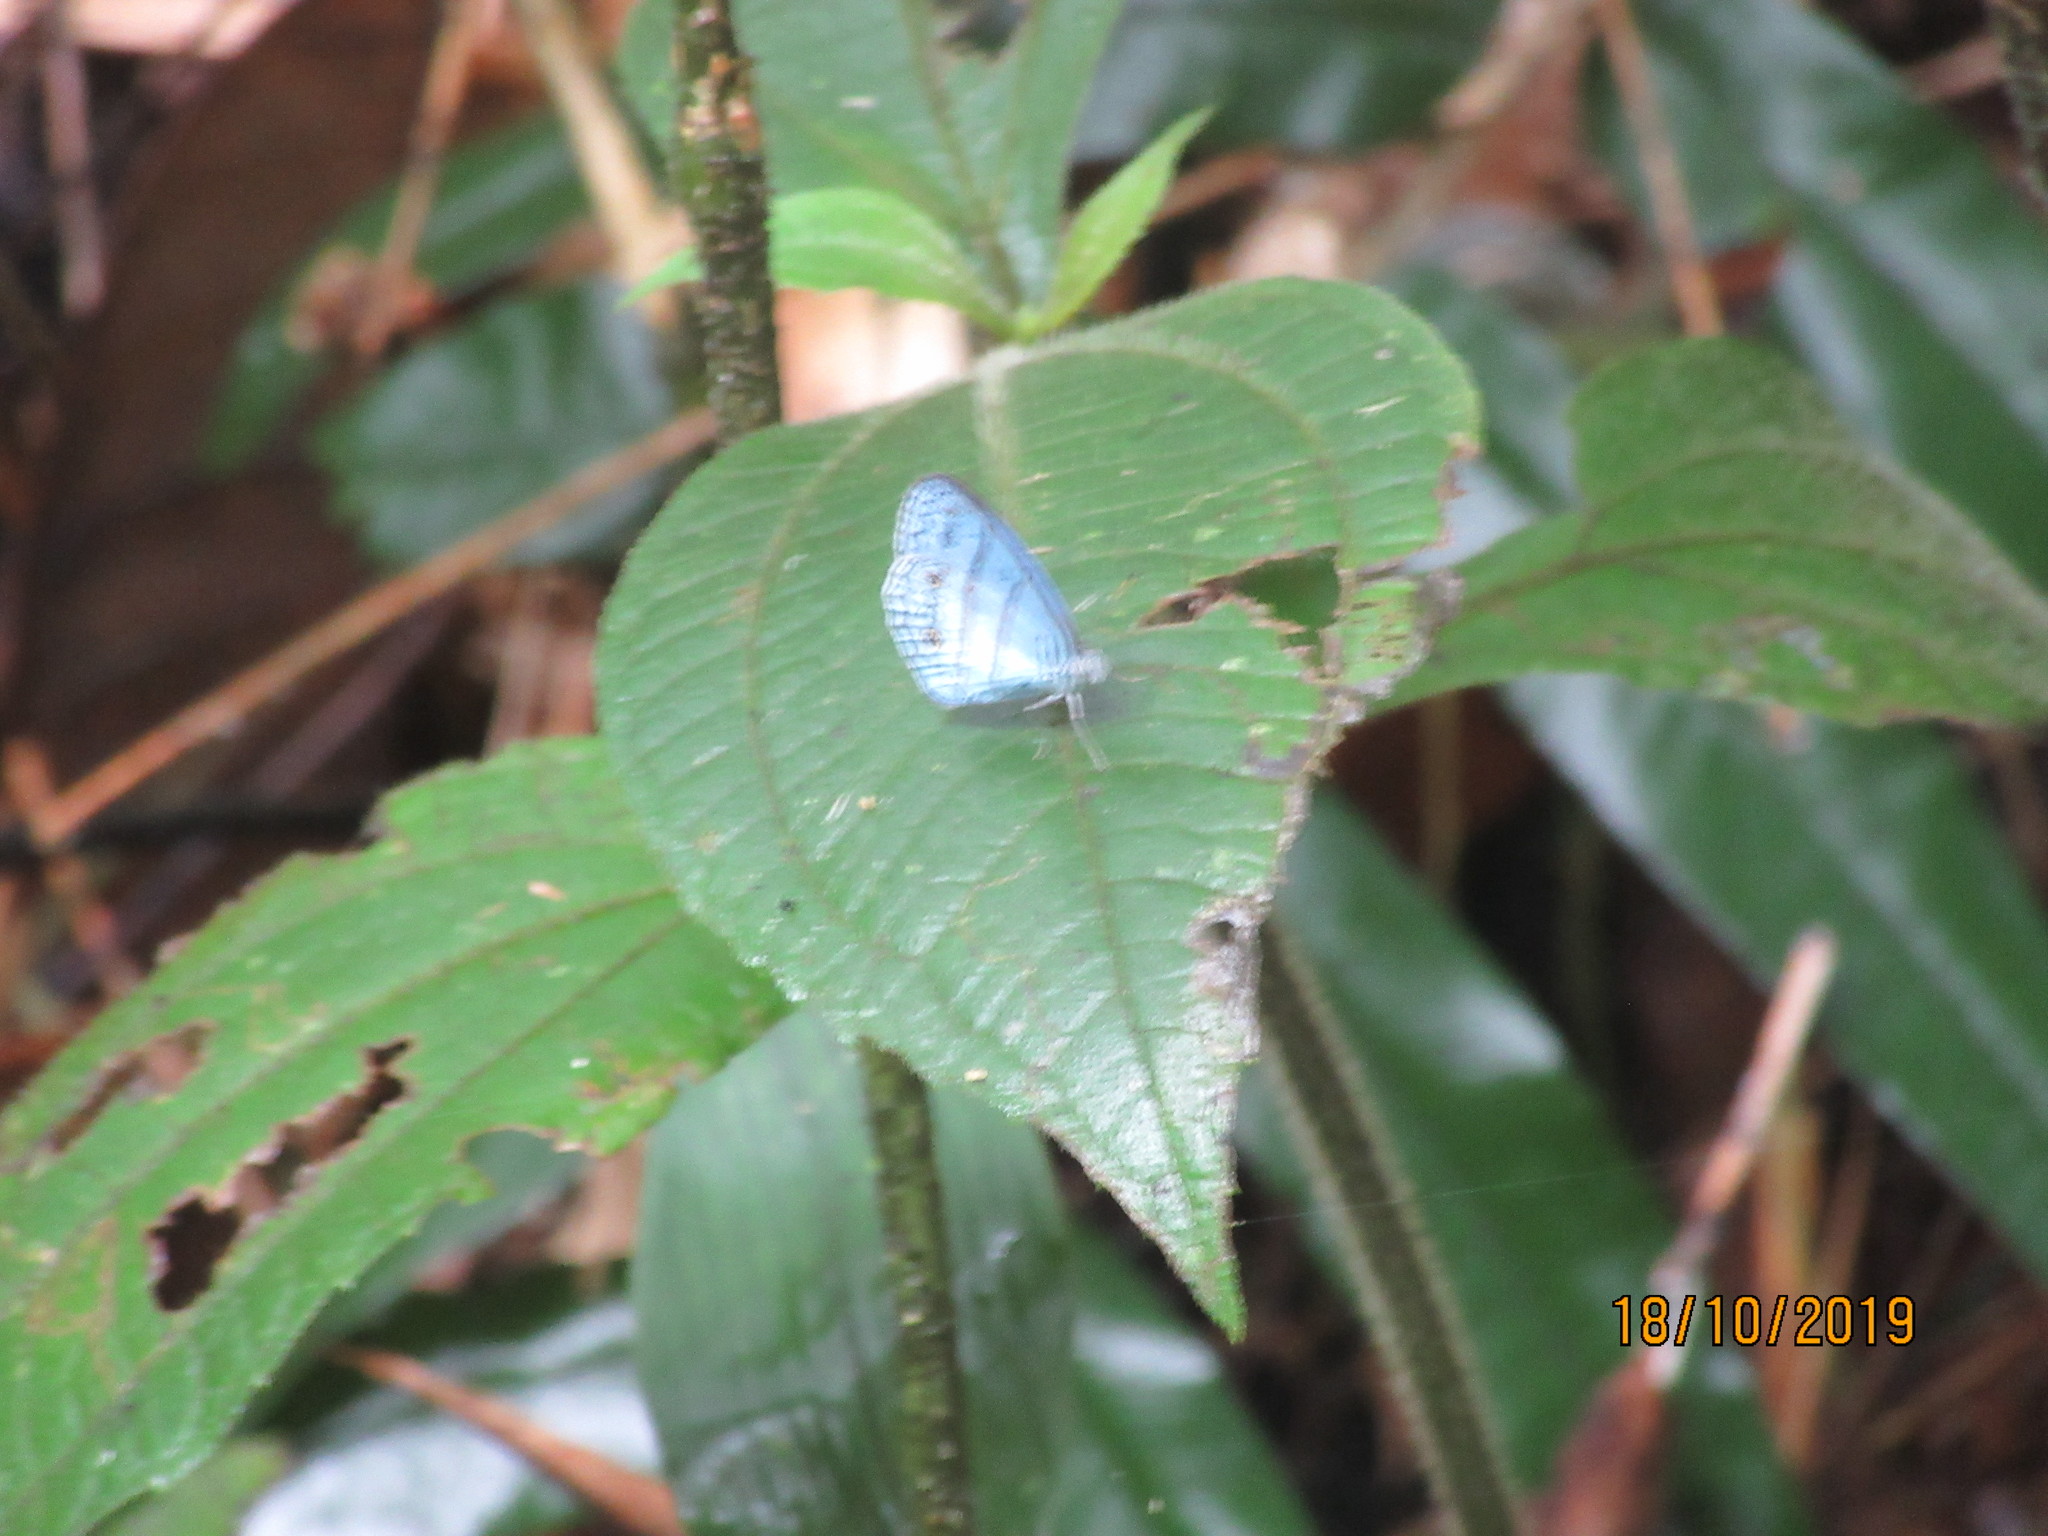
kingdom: Animalia
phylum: Arthropoda
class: Insecta
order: Lepidoptera
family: Nymphalidae
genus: Caeruleuptychia
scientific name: Caeruleuptychia
